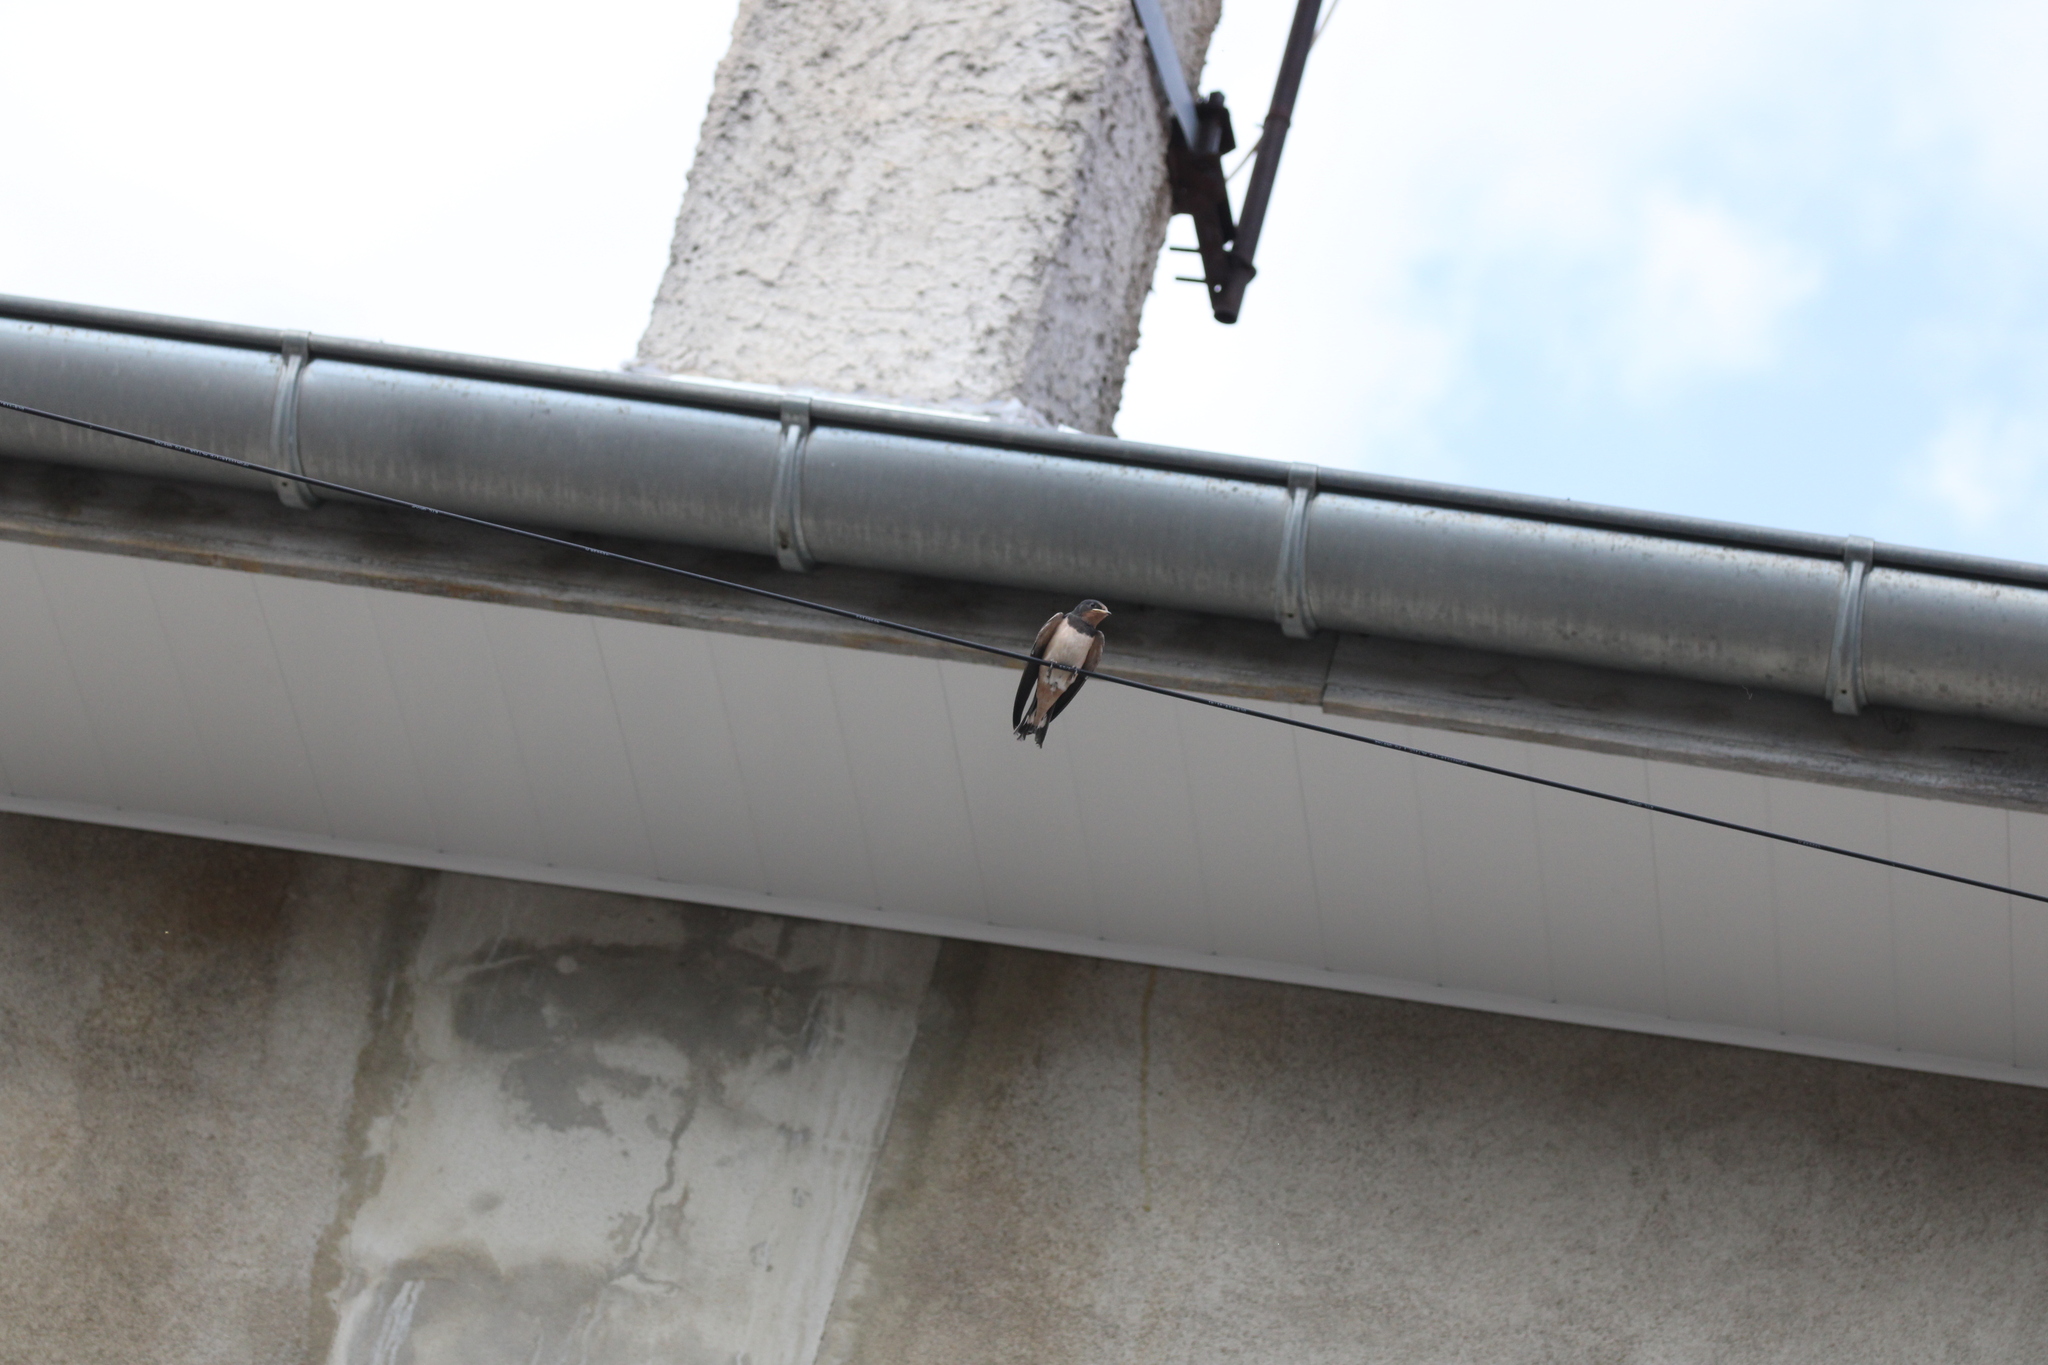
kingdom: Animalia
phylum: Chordata
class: Aves
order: Passeriformes
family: Hirundinidae
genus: Hirundo
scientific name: Hirundo rustica
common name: Barn swallow
